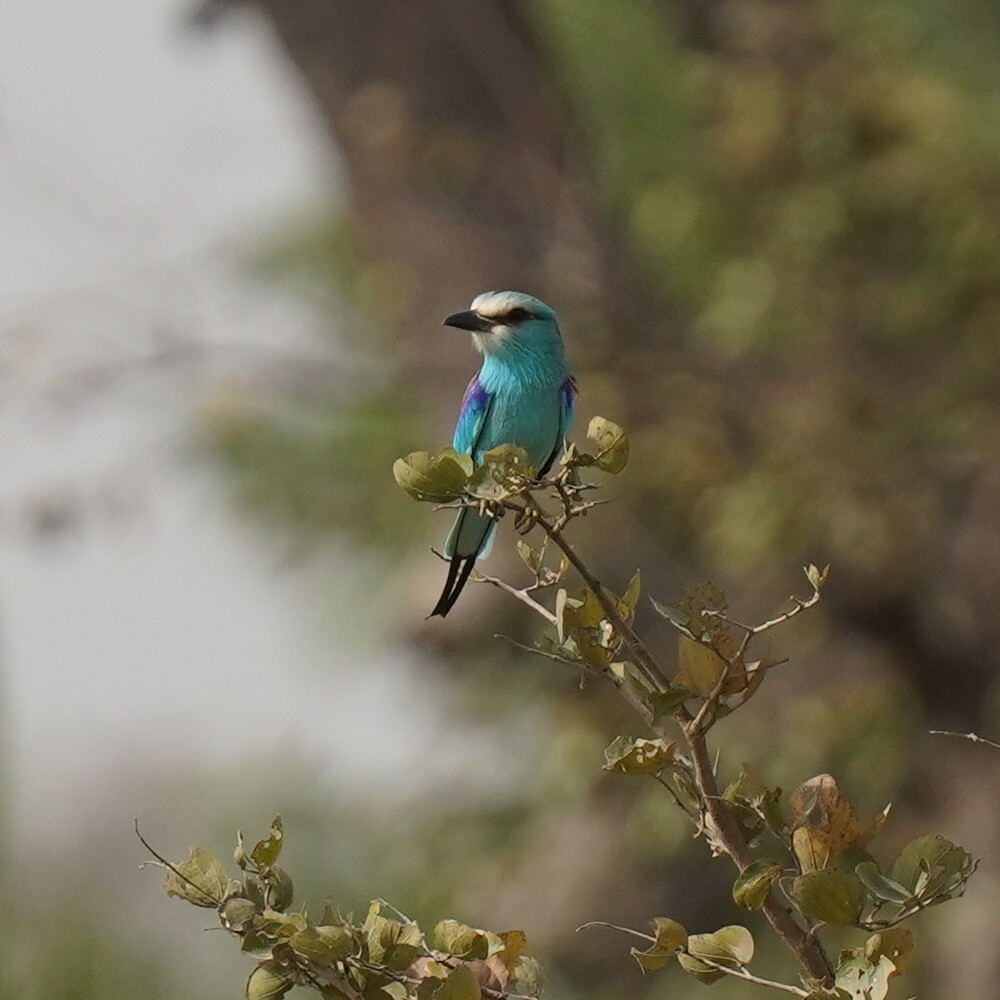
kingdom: Animalia
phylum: Chordata
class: Aves
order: Coraciiformes
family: Coraciidae
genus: Coracias
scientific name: Coracias abyssinicus
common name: Abyssinian roller
